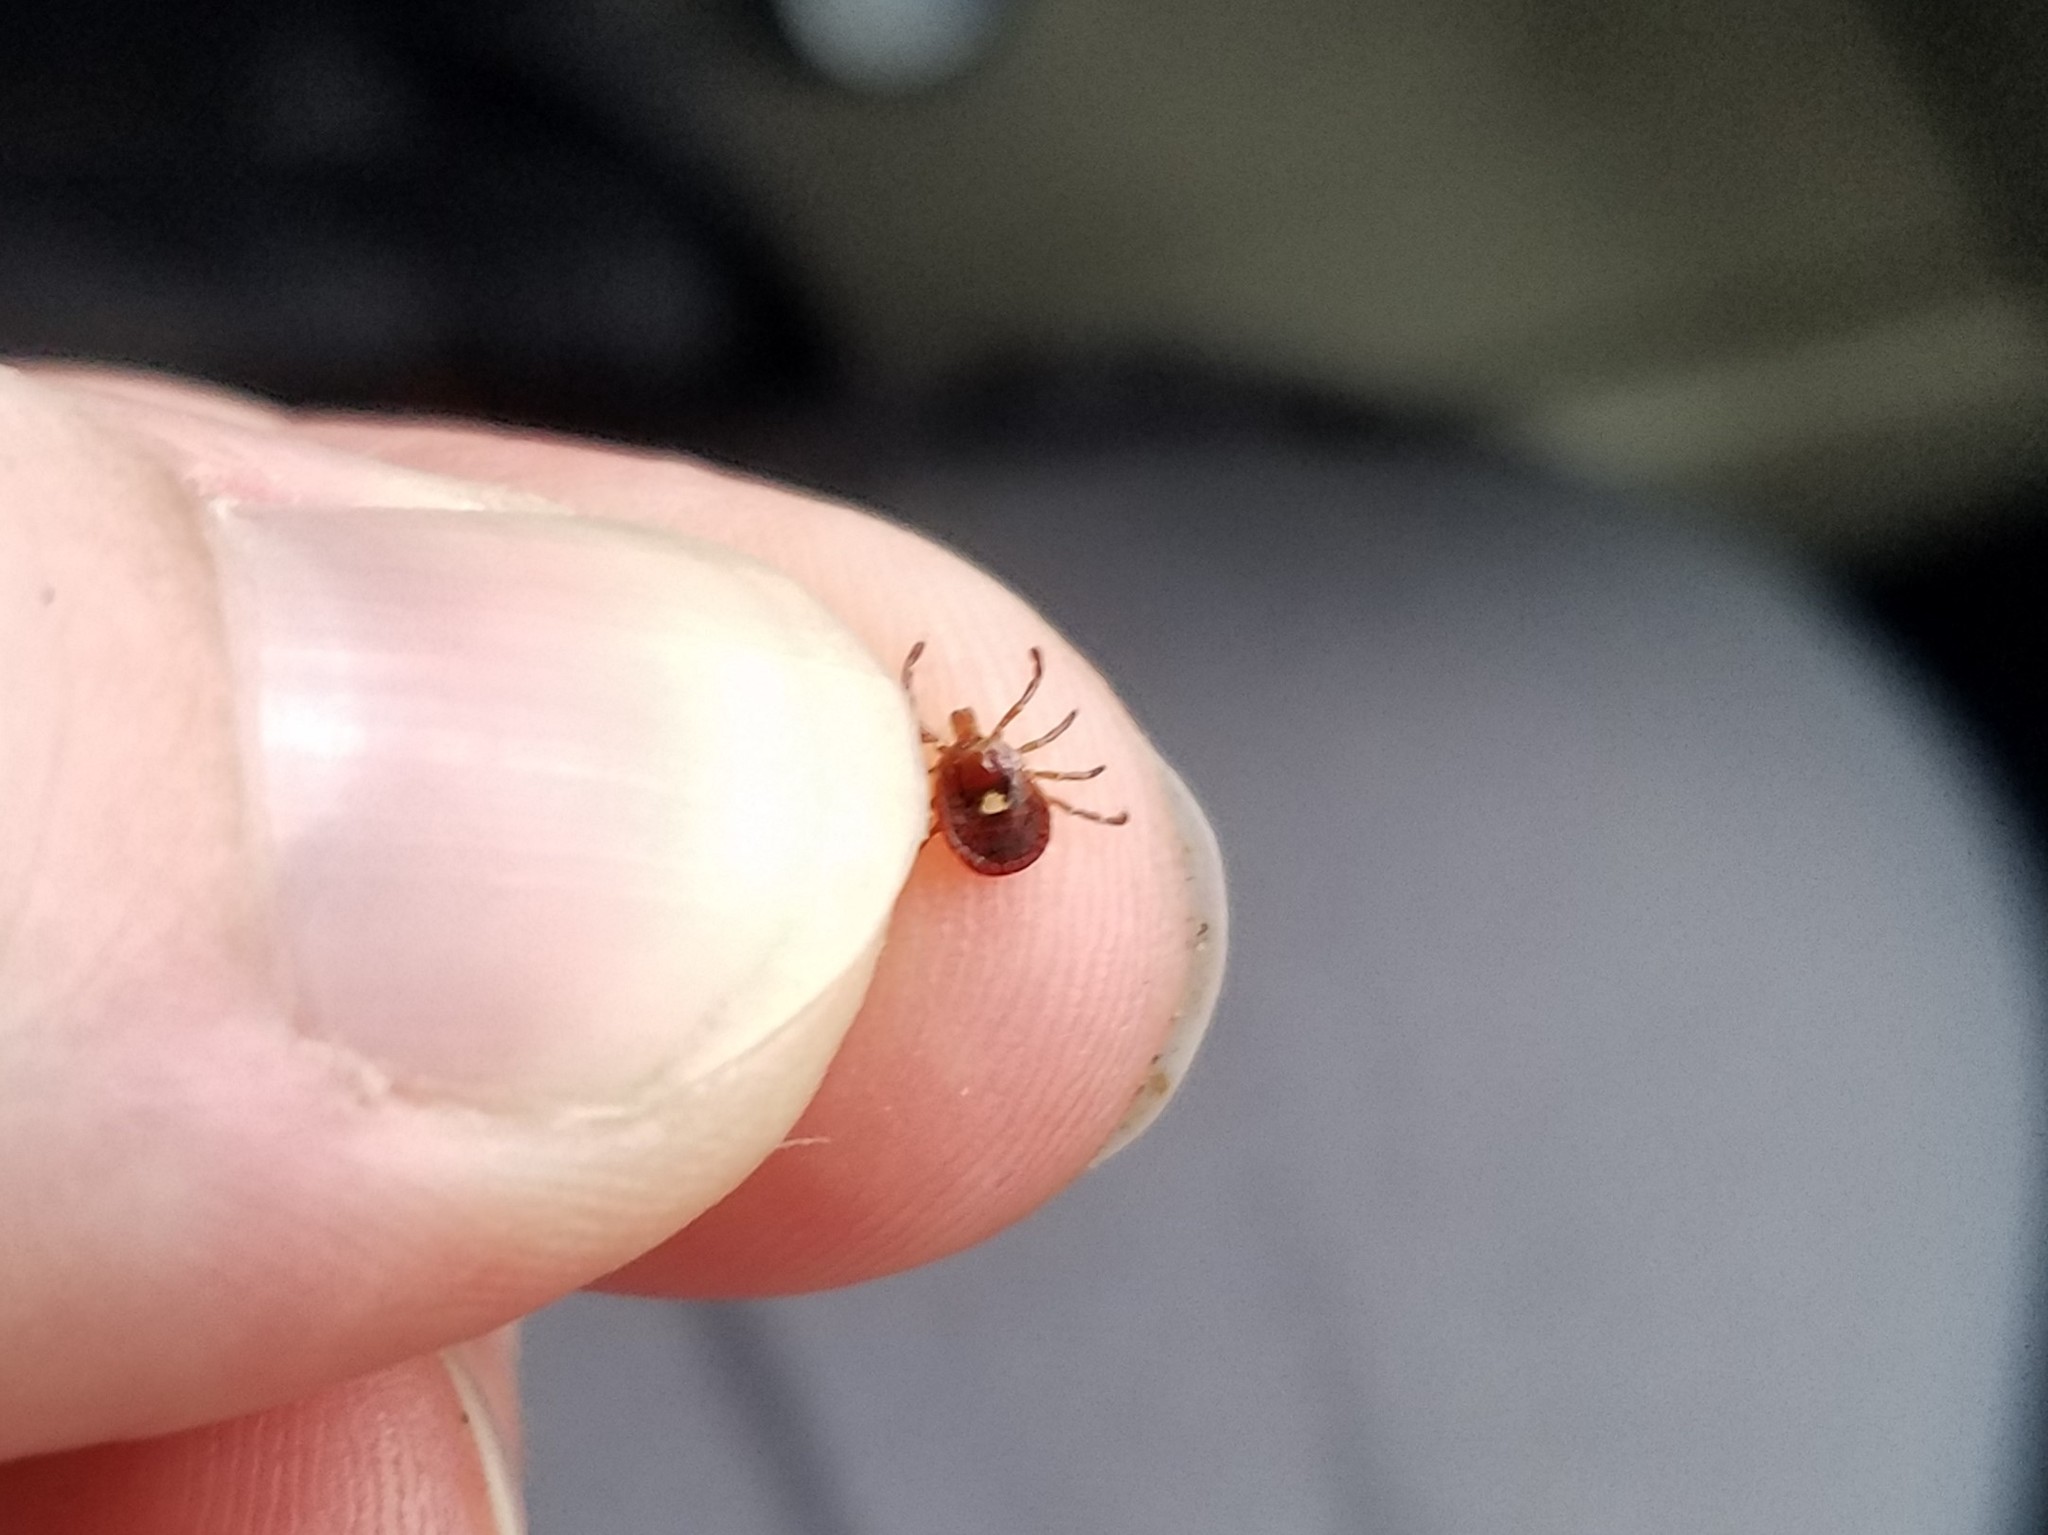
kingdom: Animalia
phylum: Arthropoda
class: Arachnida
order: Ixodida
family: Ixodidae
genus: Amblyomma
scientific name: Amblyomma americanum
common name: Lone star tick
